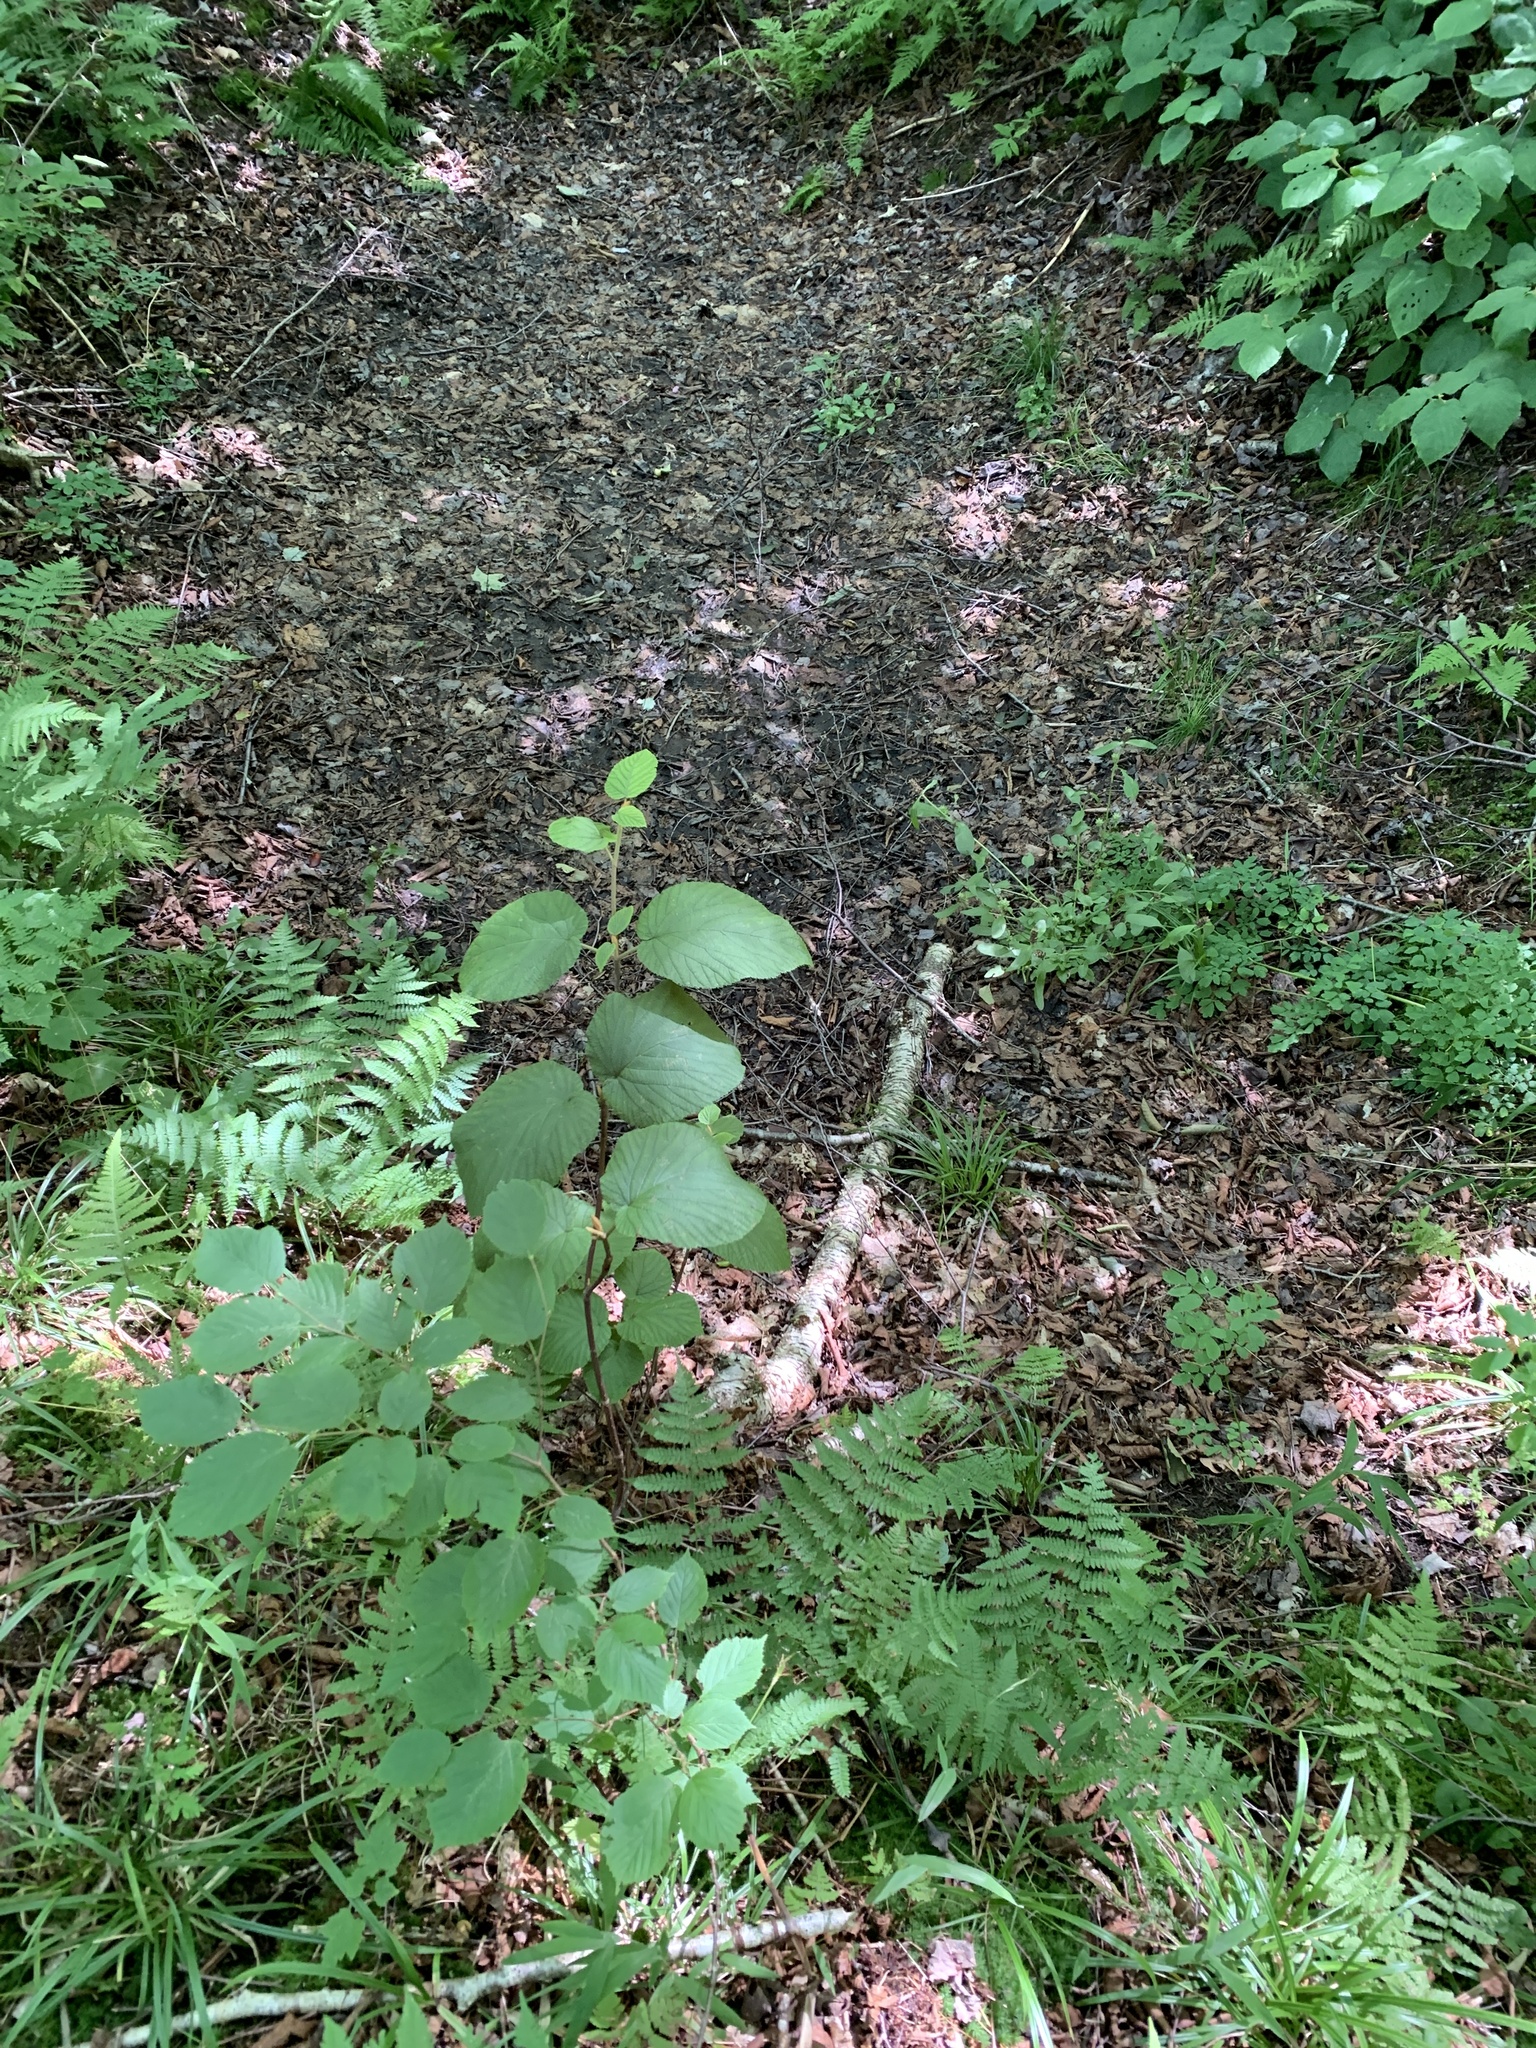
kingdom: Plantae
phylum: Tracheophyta
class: Magnoliopsida
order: Dipsacales
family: Viburnaceae
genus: Viburnum
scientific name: Viburnum lantanoides
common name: Hobblebush
